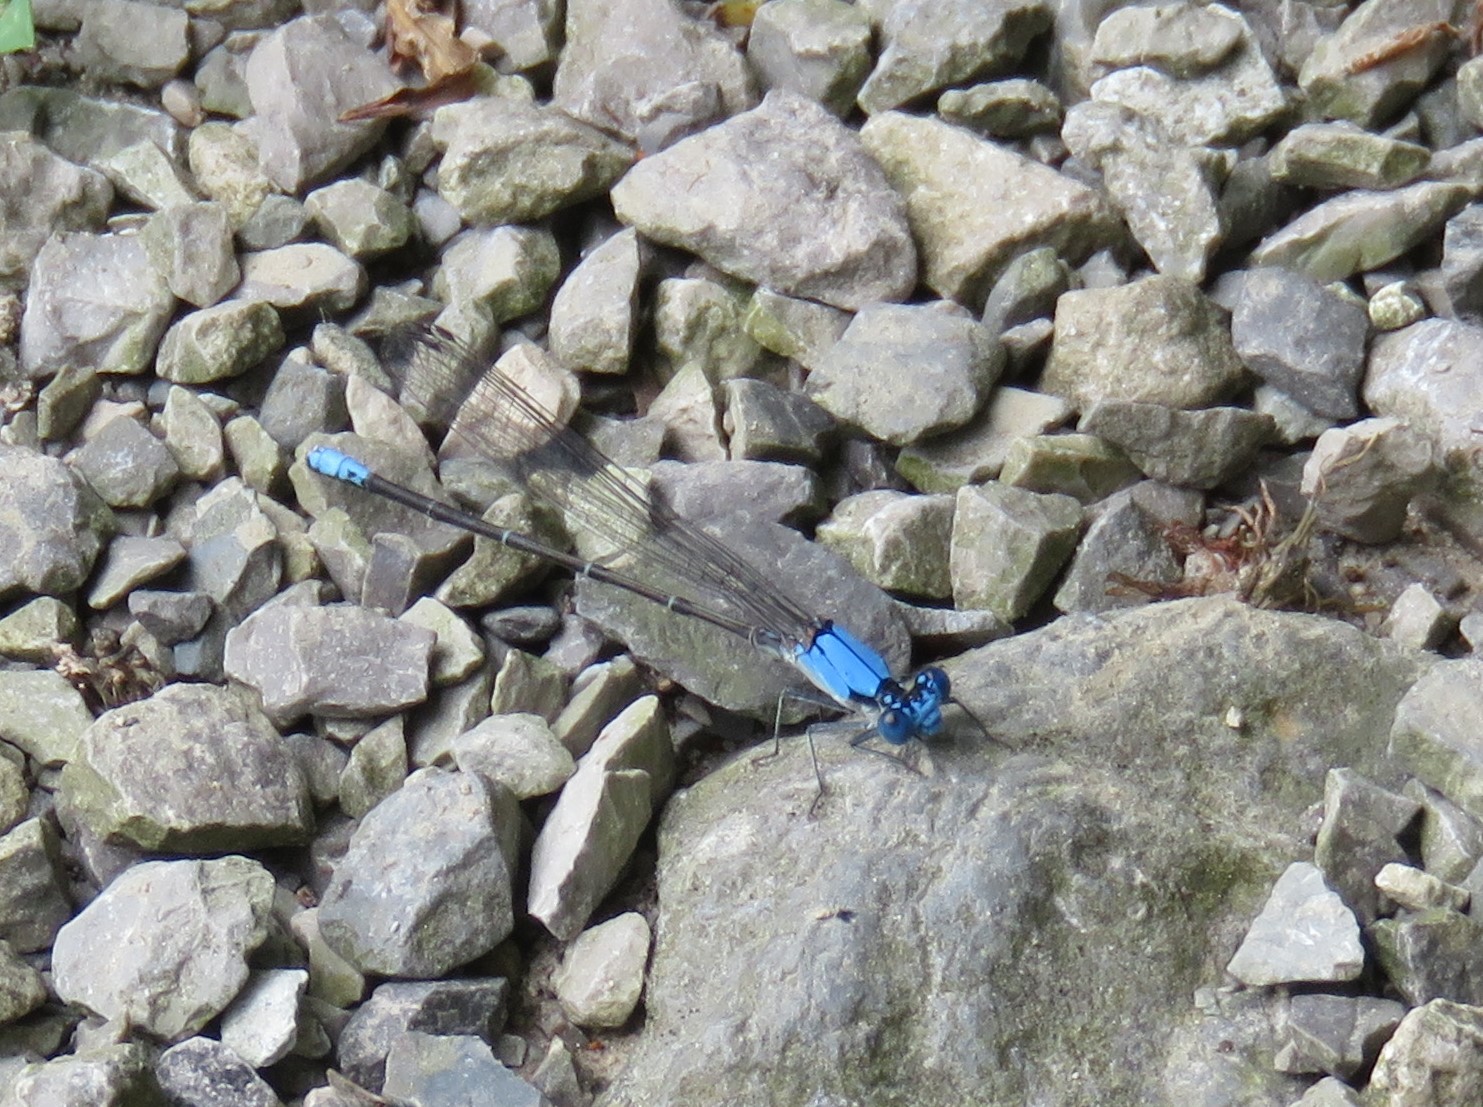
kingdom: Animalia
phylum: Arthropoda
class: Insecta
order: Odonata
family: Coenagrionidae
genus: Argia
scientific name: Argia apicalis
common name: Blue-fronted dancer
